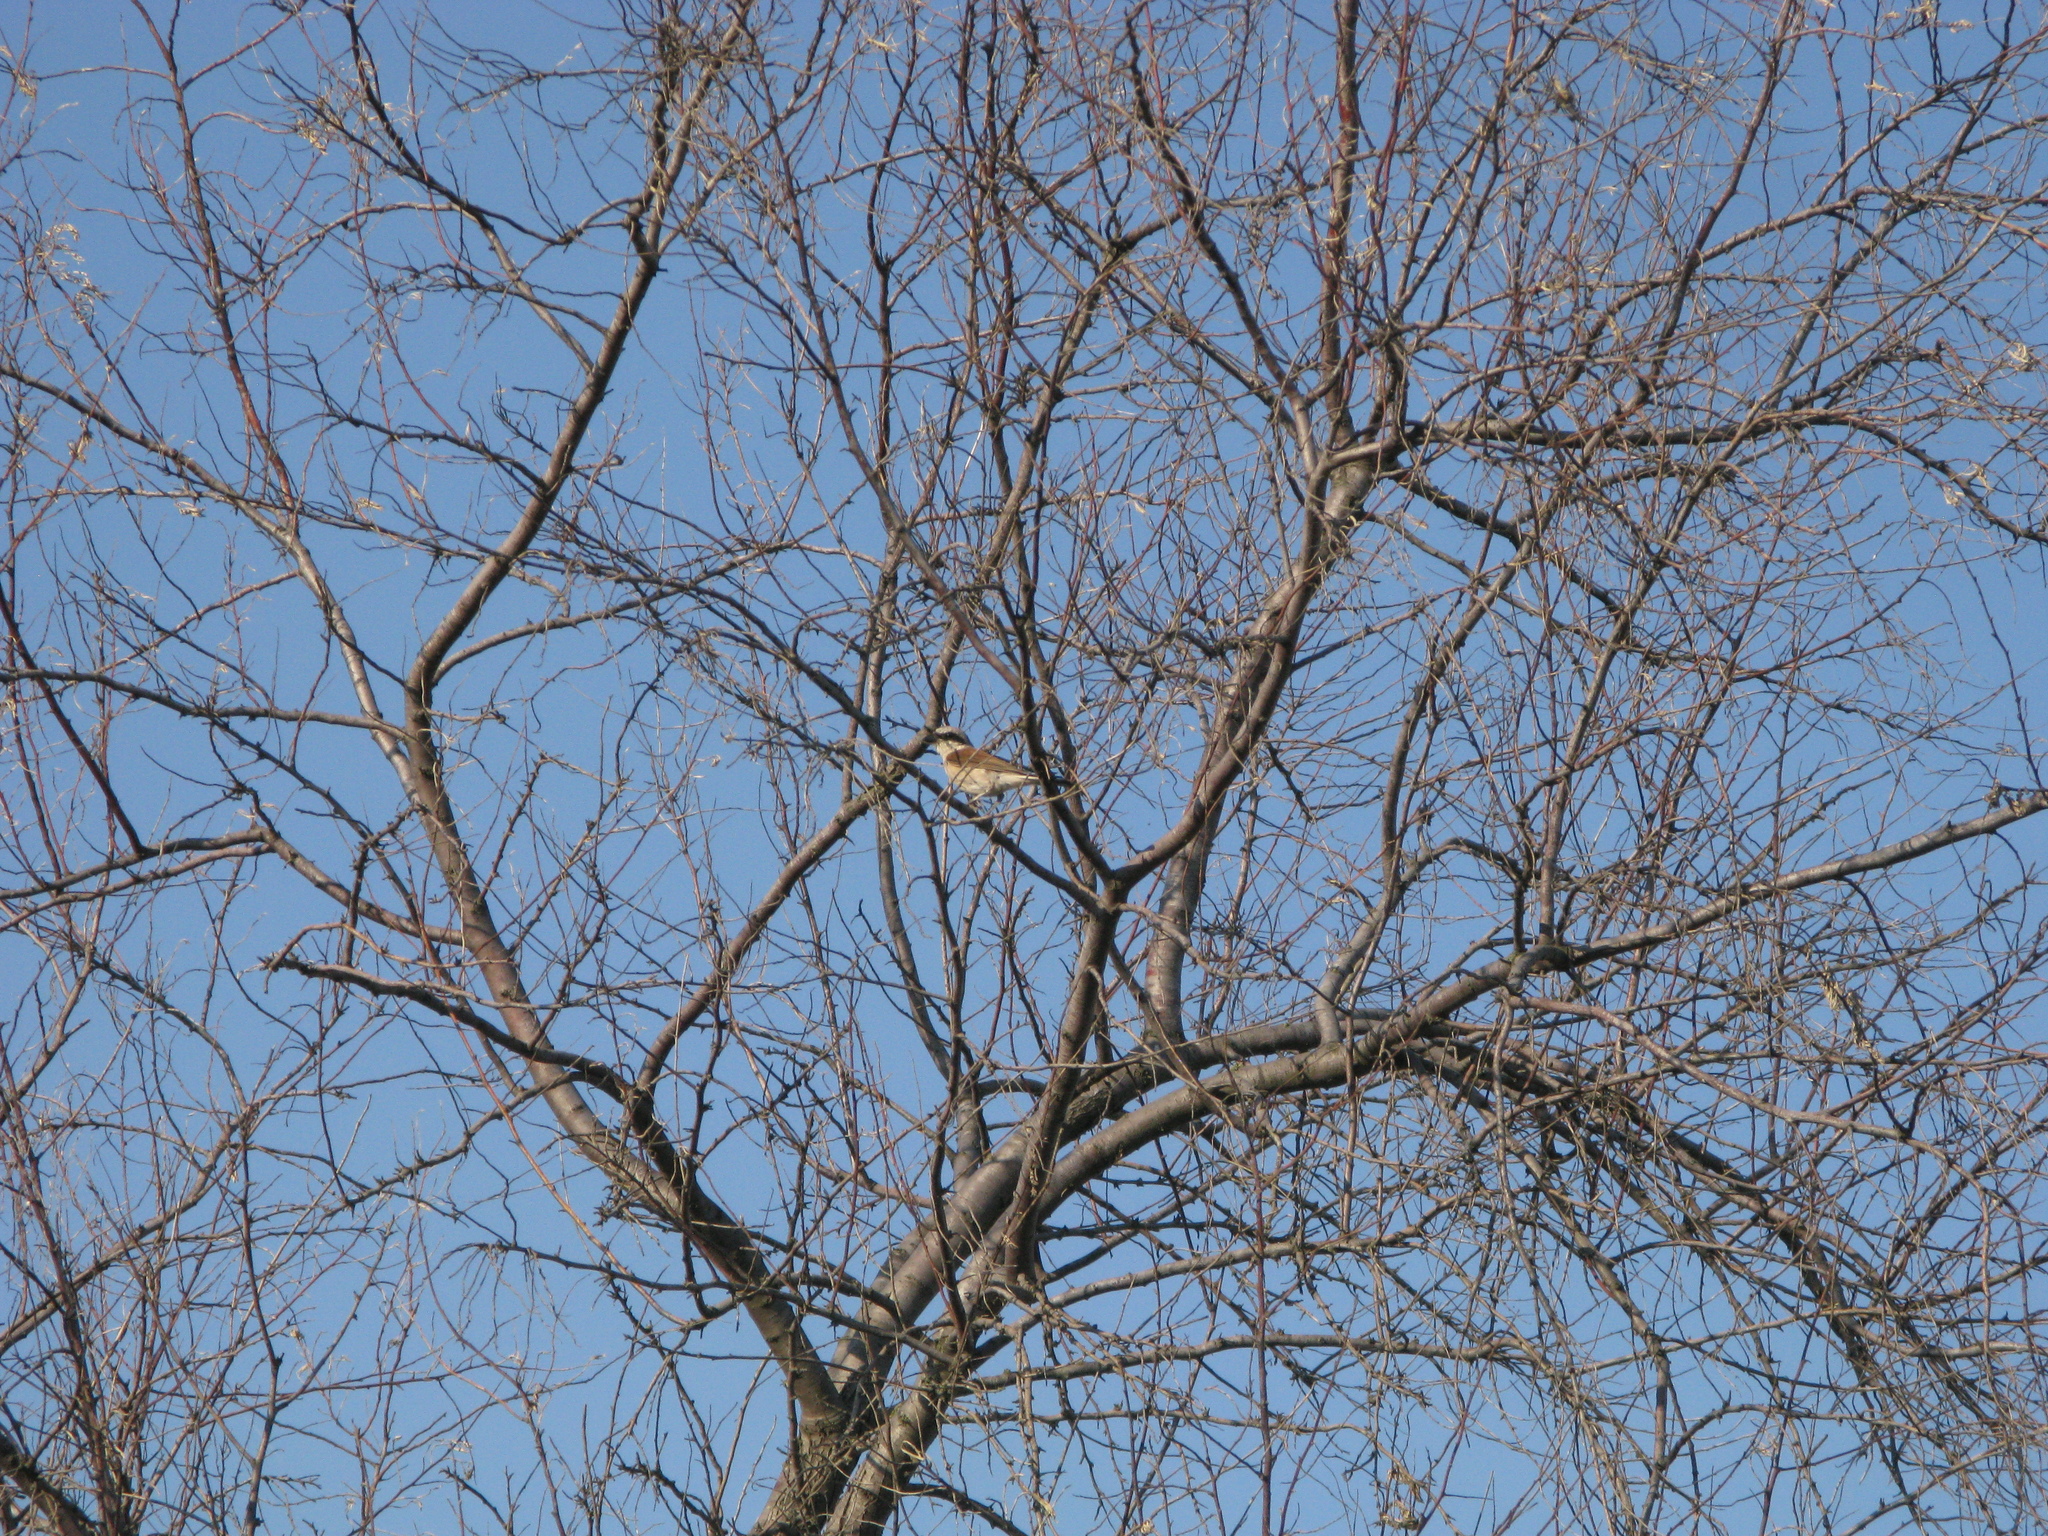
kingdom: Animalia
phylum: Chordata
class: Aves
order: Passeriformes
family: Laniidae
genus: Lanius
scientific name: Lanius collurio
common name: Red-backed shrike
